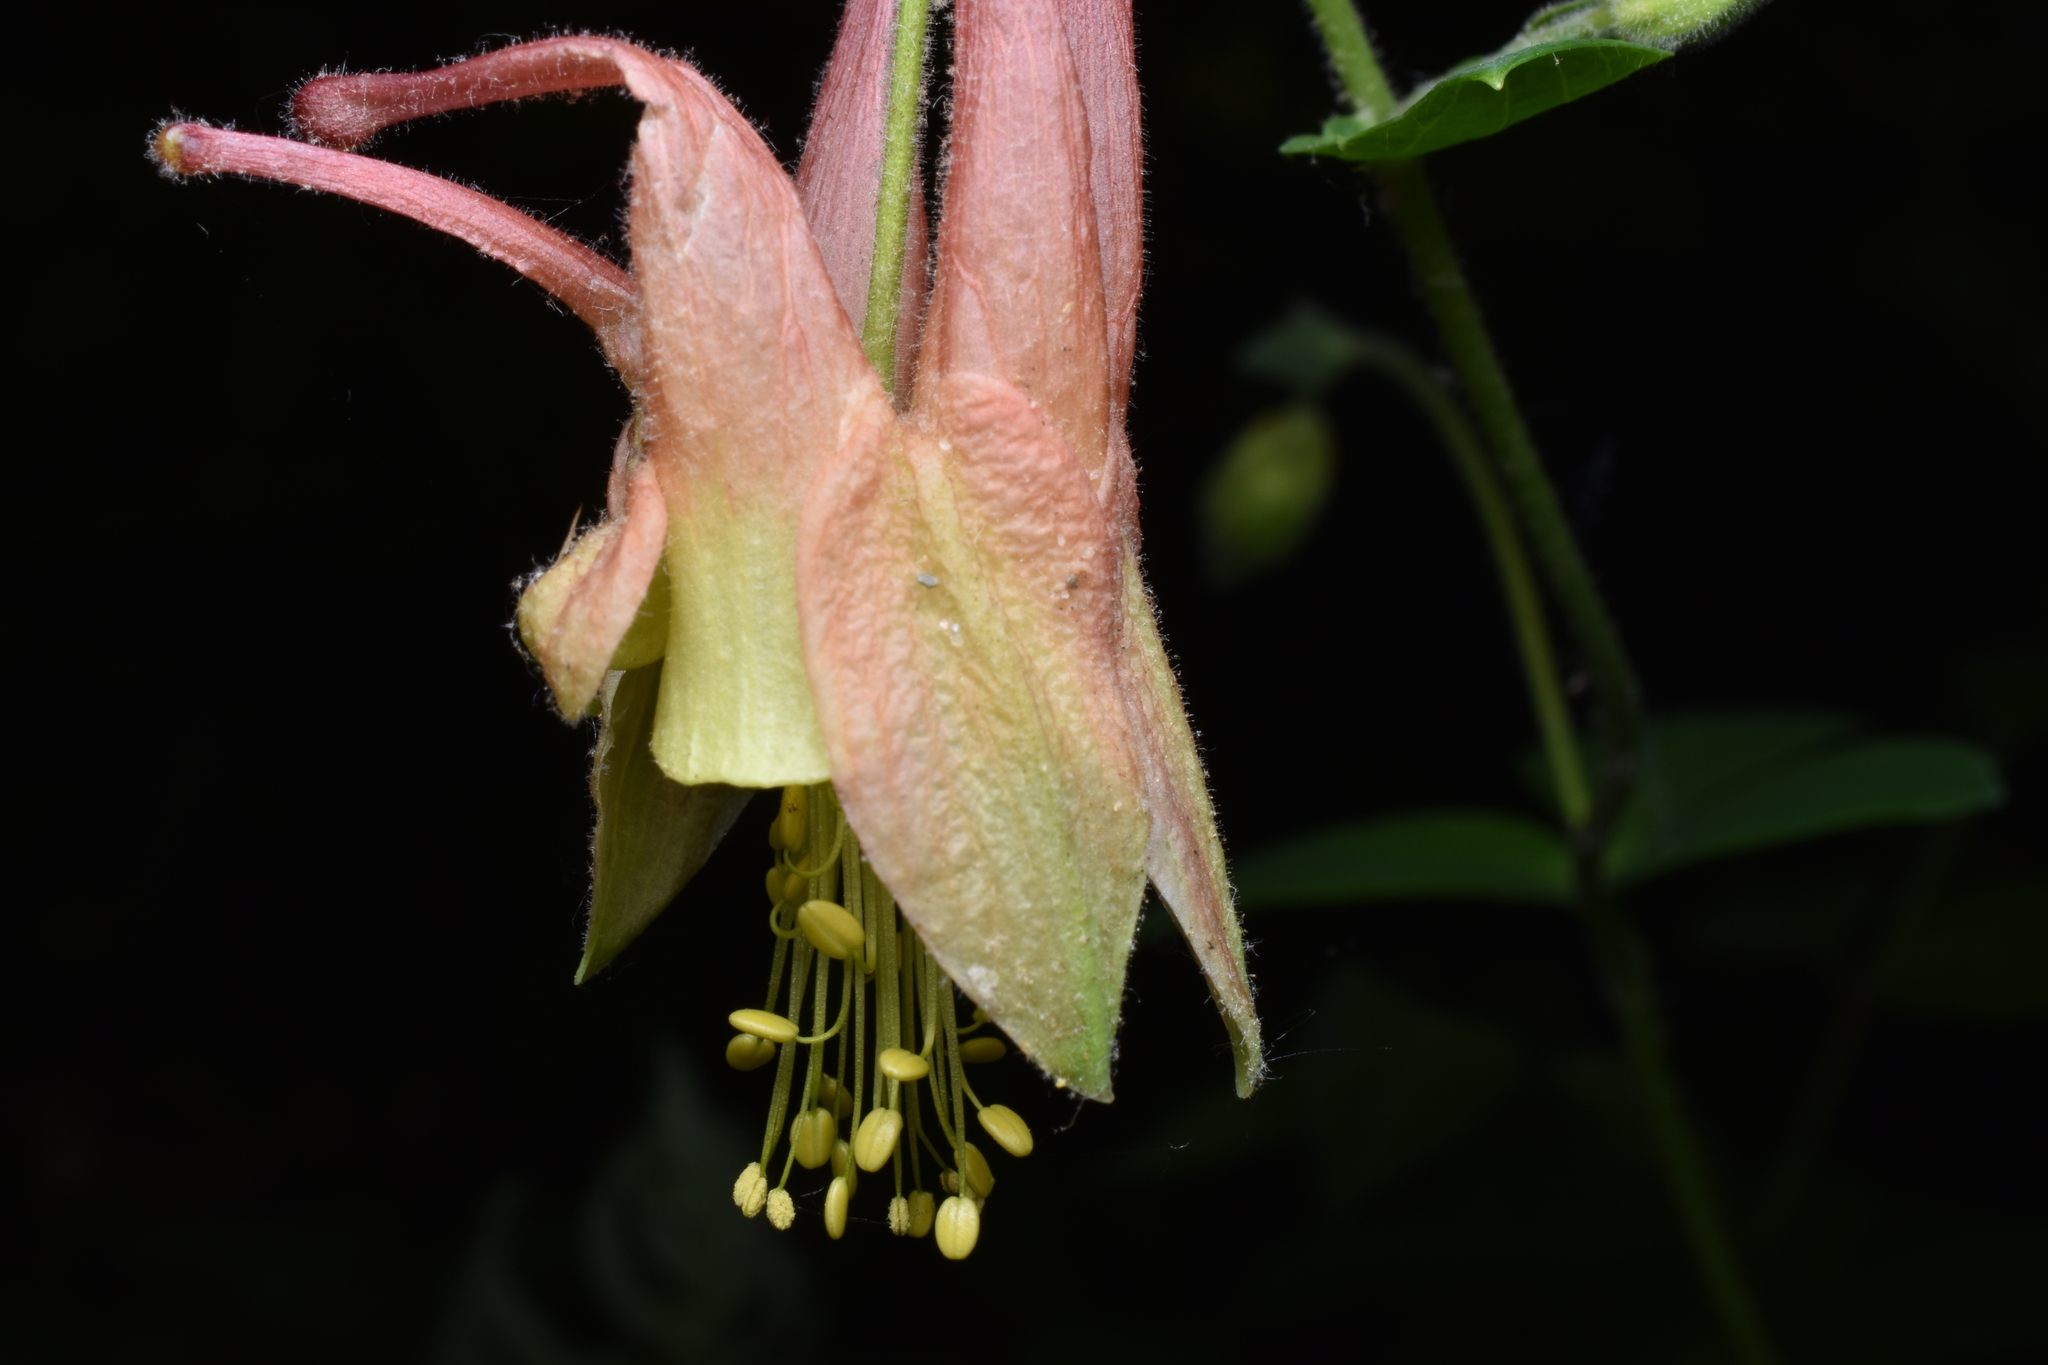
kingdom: Plantae
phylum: Tracheophyta
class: Magnoliopsida
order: Ranunculales
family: Ranunculaceae
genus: Aquilegia
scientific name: Aquilegia canadensis
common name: American columbine
